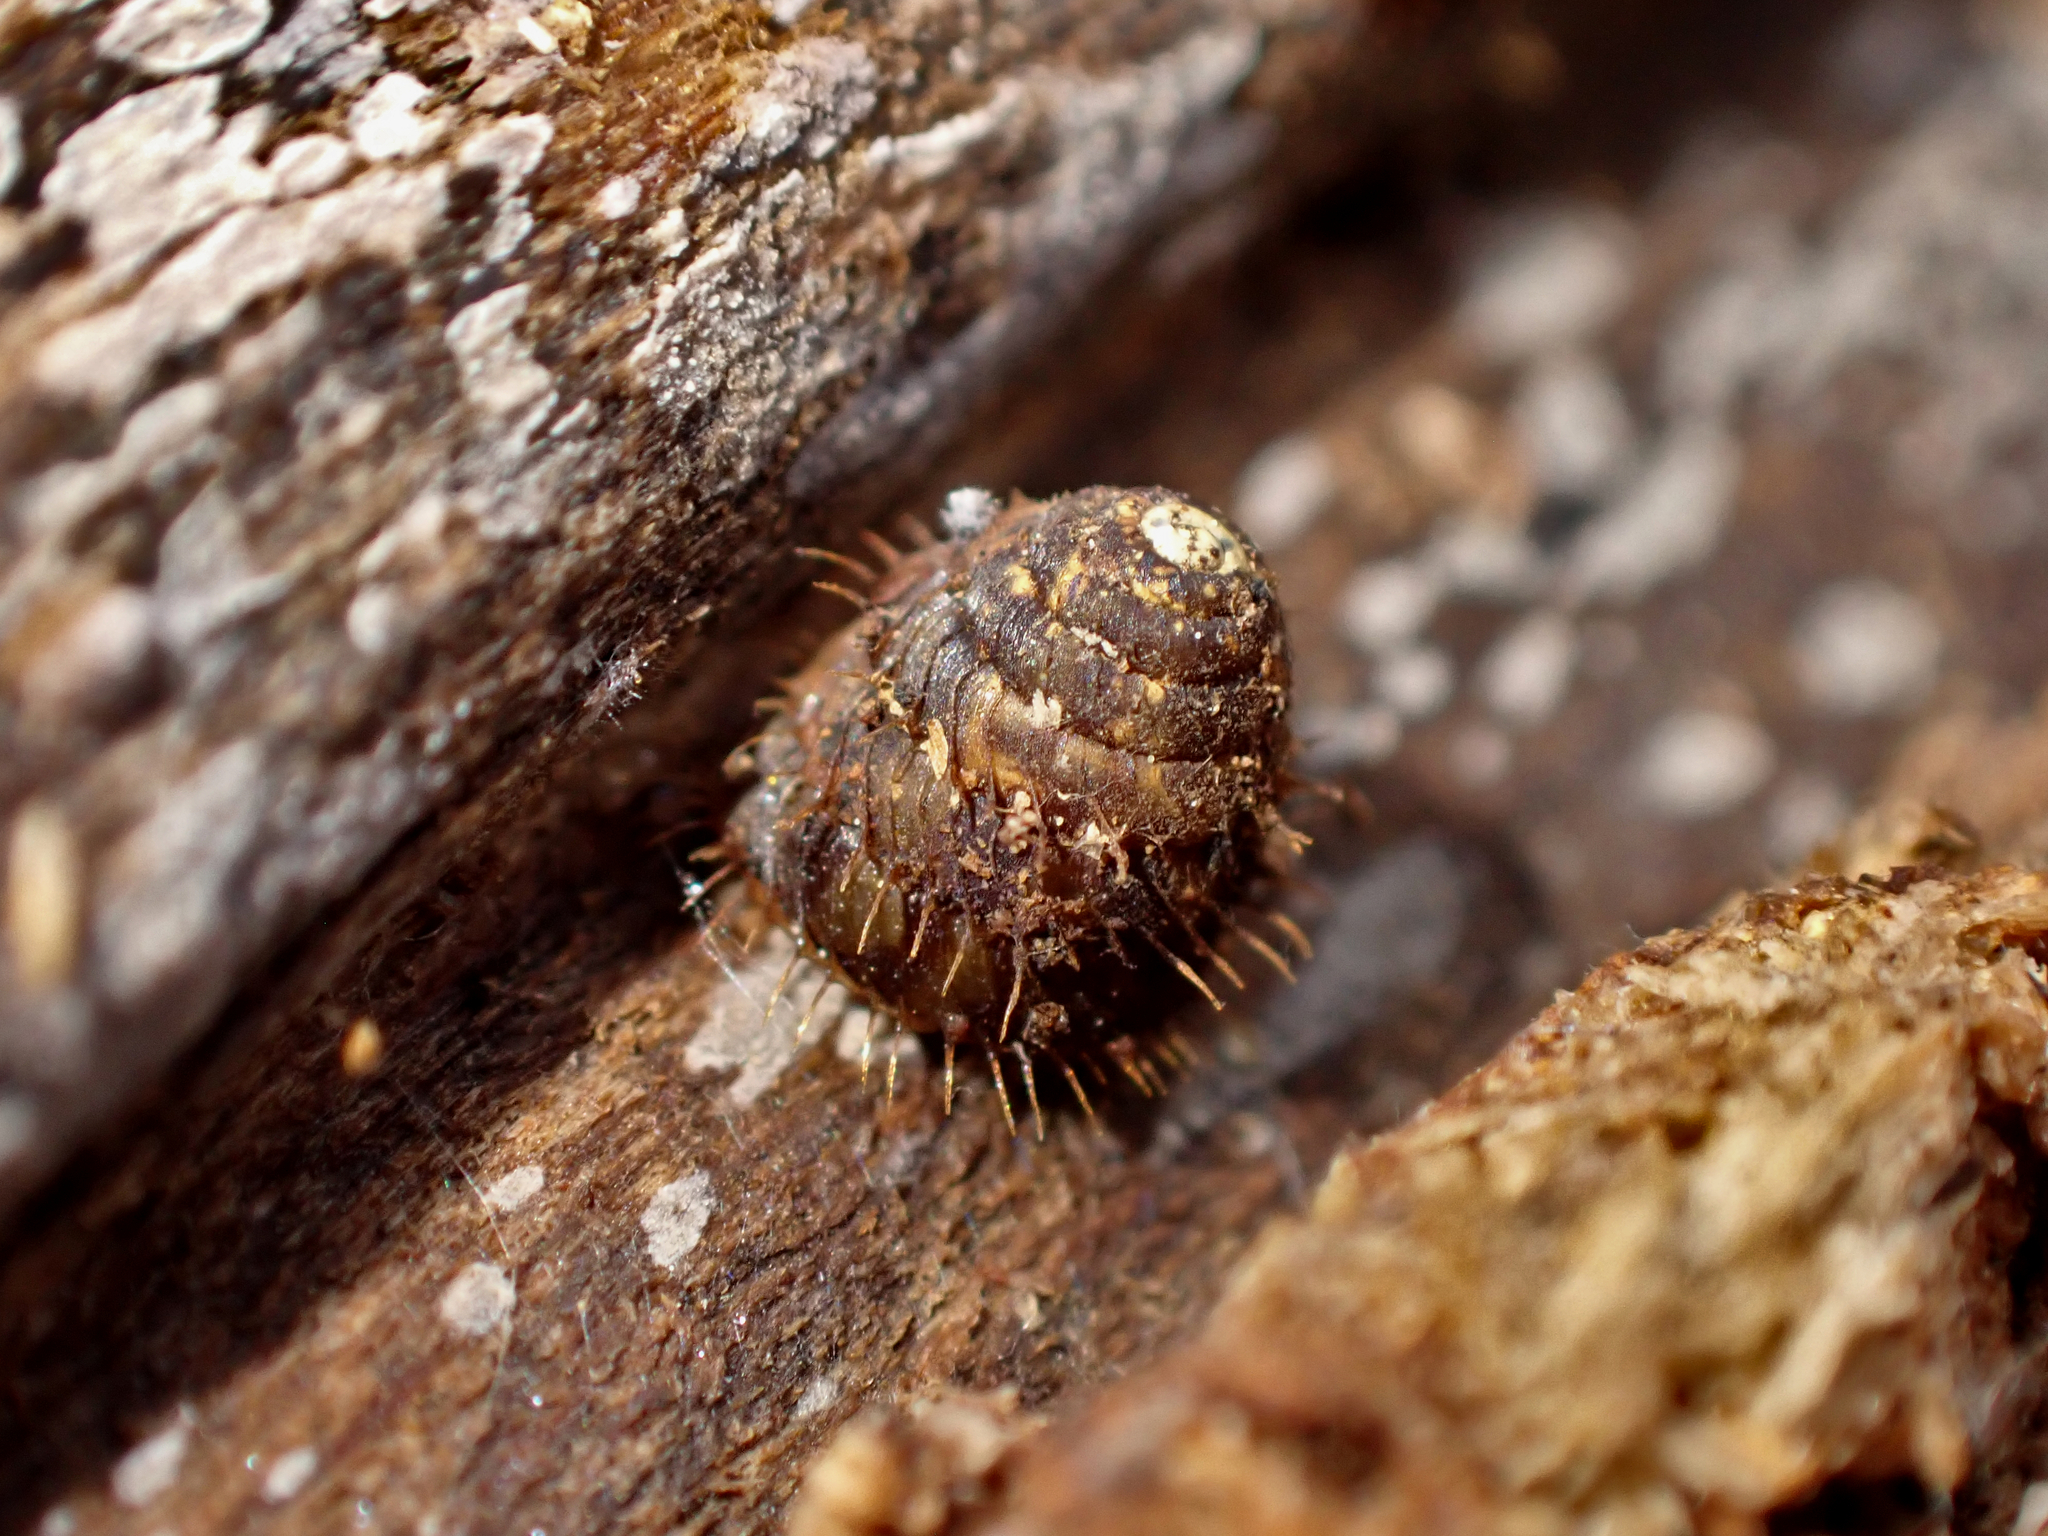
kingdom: Animalia
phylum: Mollusca
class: Gastropoda
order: Stylommatophora
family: Charopidae
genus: Aeschrodomus
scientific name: Aeschrodomus stipulata
